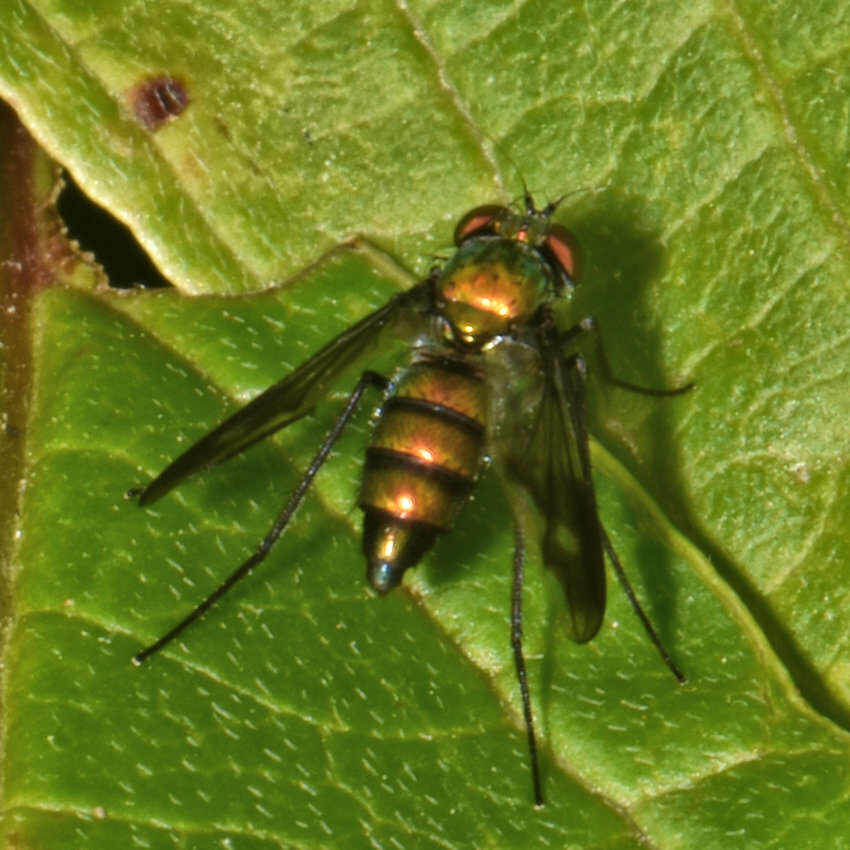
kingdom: Animalia
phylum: Arthropoda
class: Insecta
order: Diptera
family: Dolichopodidae
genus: Condylostylus
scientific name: Condylostylus patibulatus
